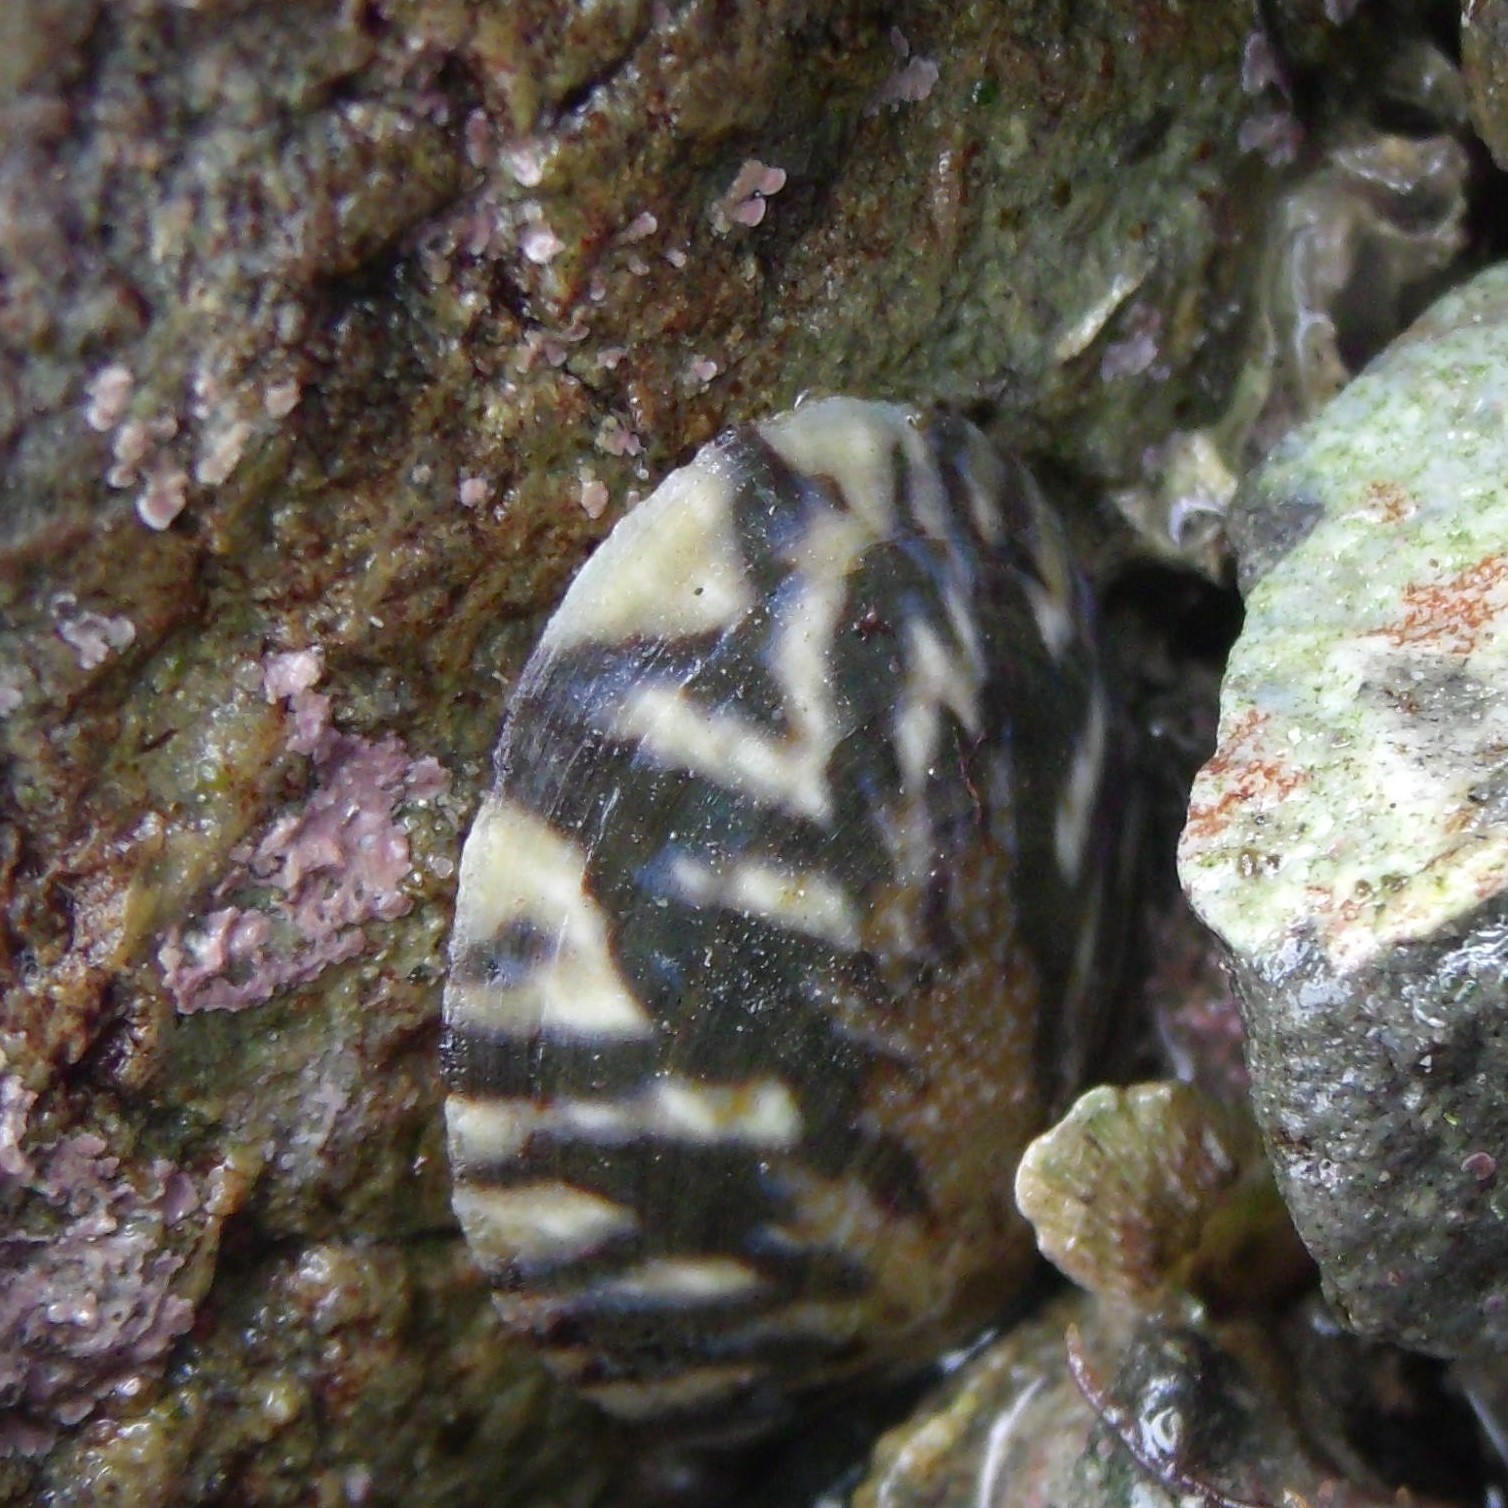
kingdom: Animalia
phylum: Mollusca
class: Gastropoda
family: Nacellidae
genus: Cellana
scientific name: Cellana radians
